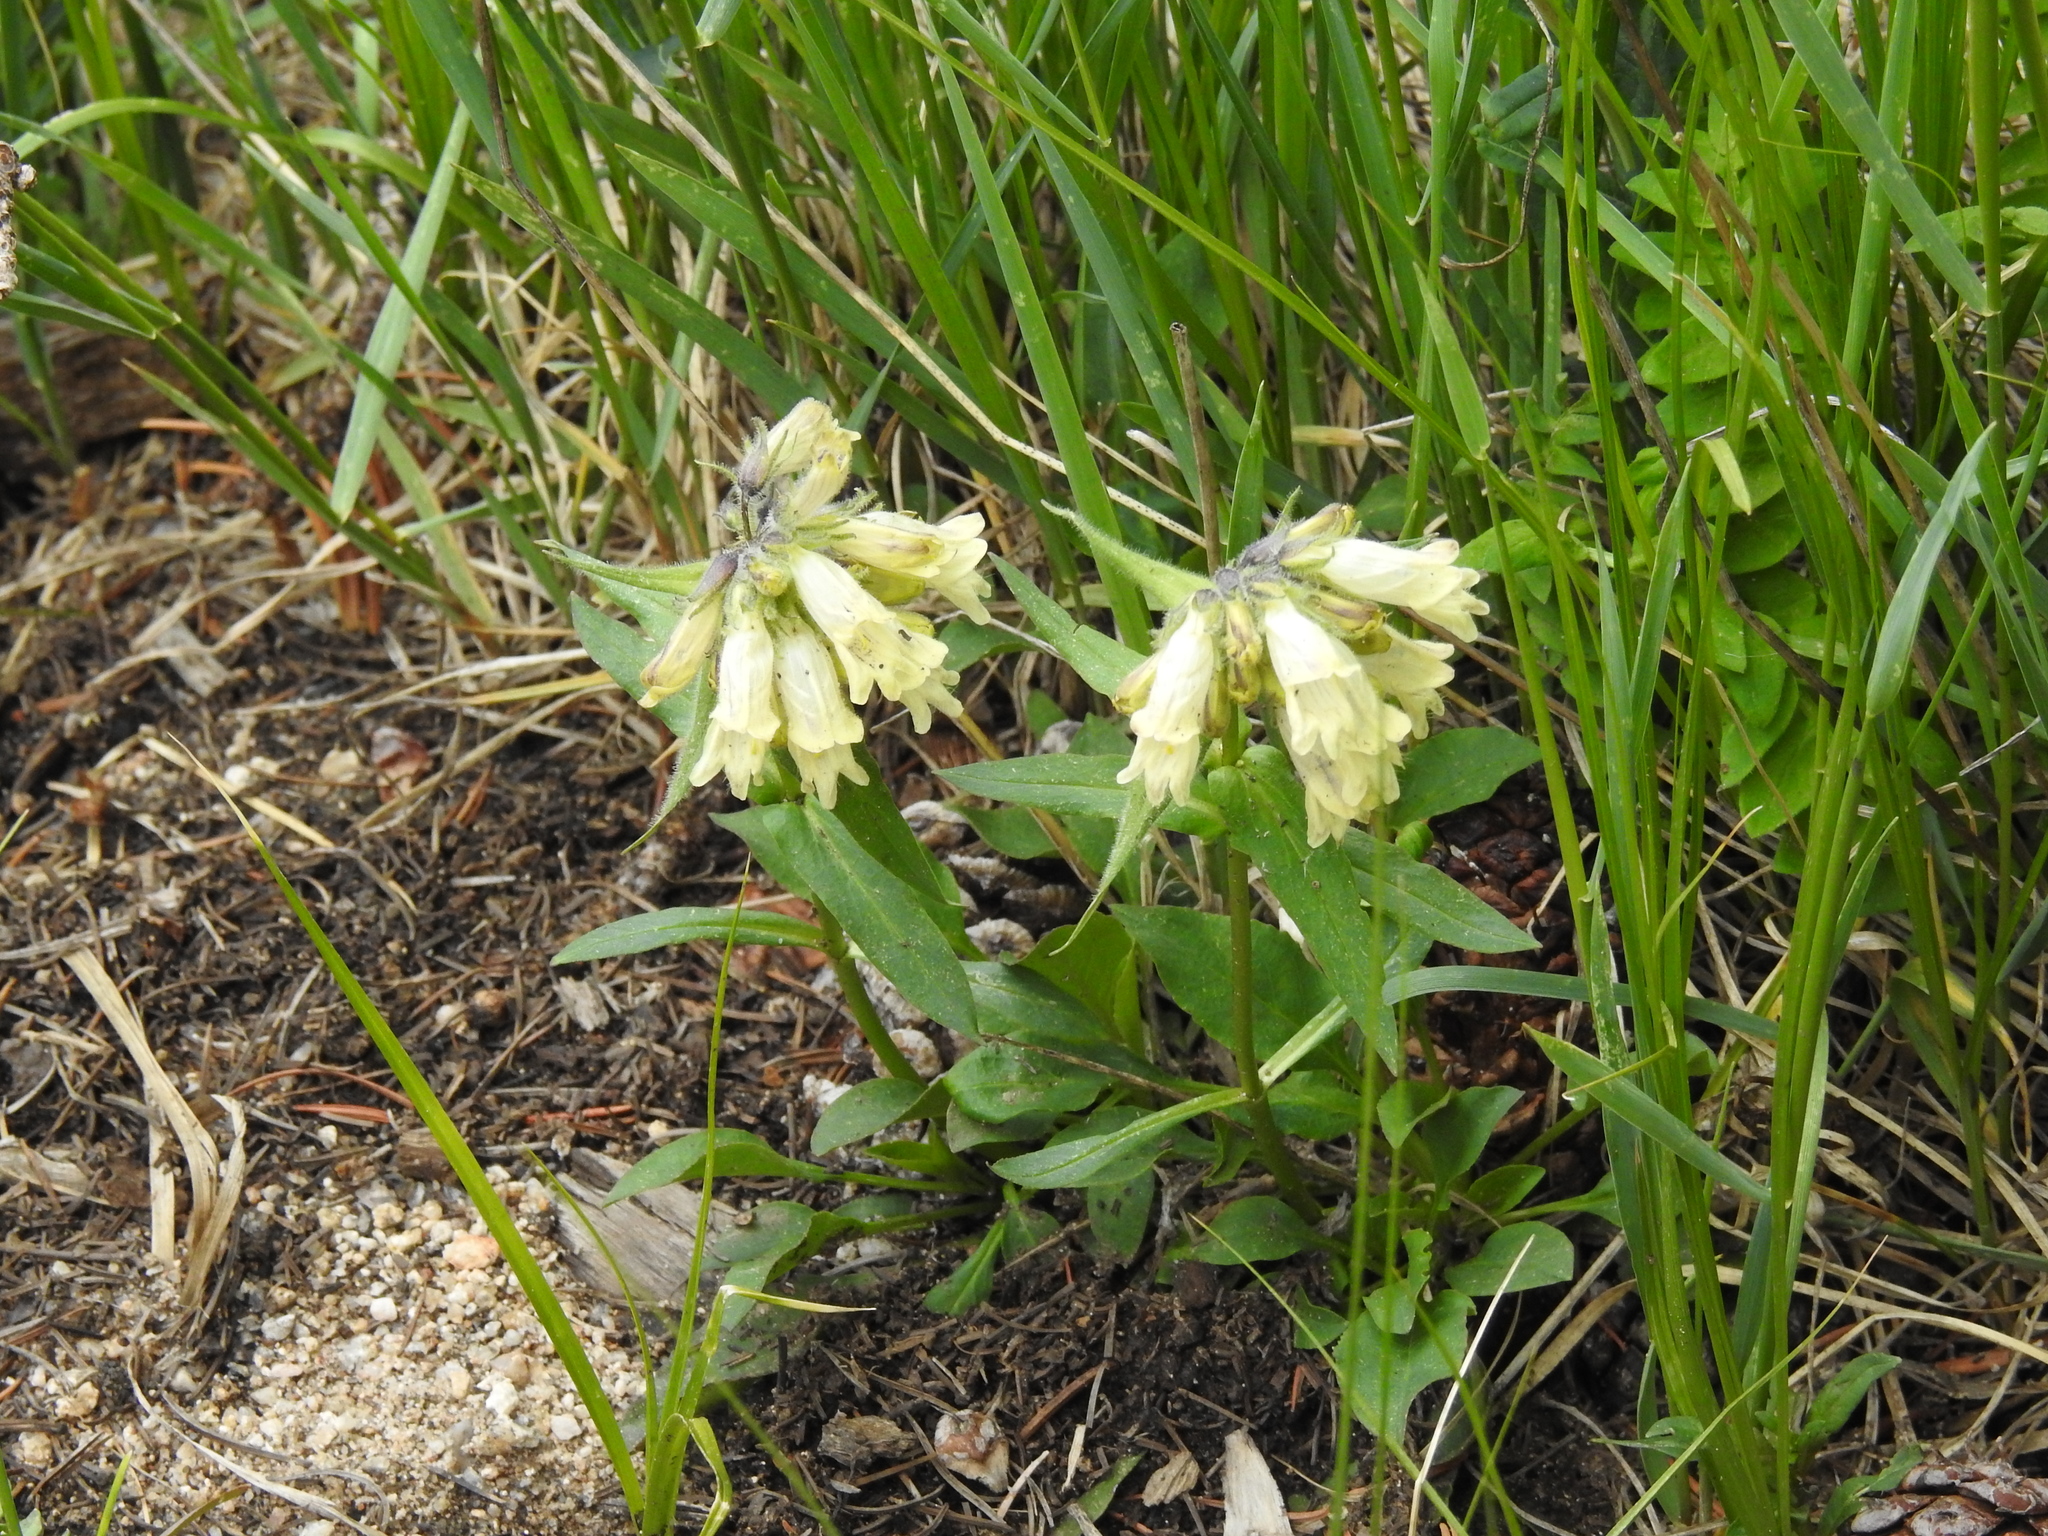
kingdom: Plantae
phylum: Tracheophyta
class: Magnoliopsida
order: Lamiales
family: Plantaginaceae
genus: Penstemon
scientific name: Penstemon whippleanus
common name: Whipple's penstemon
